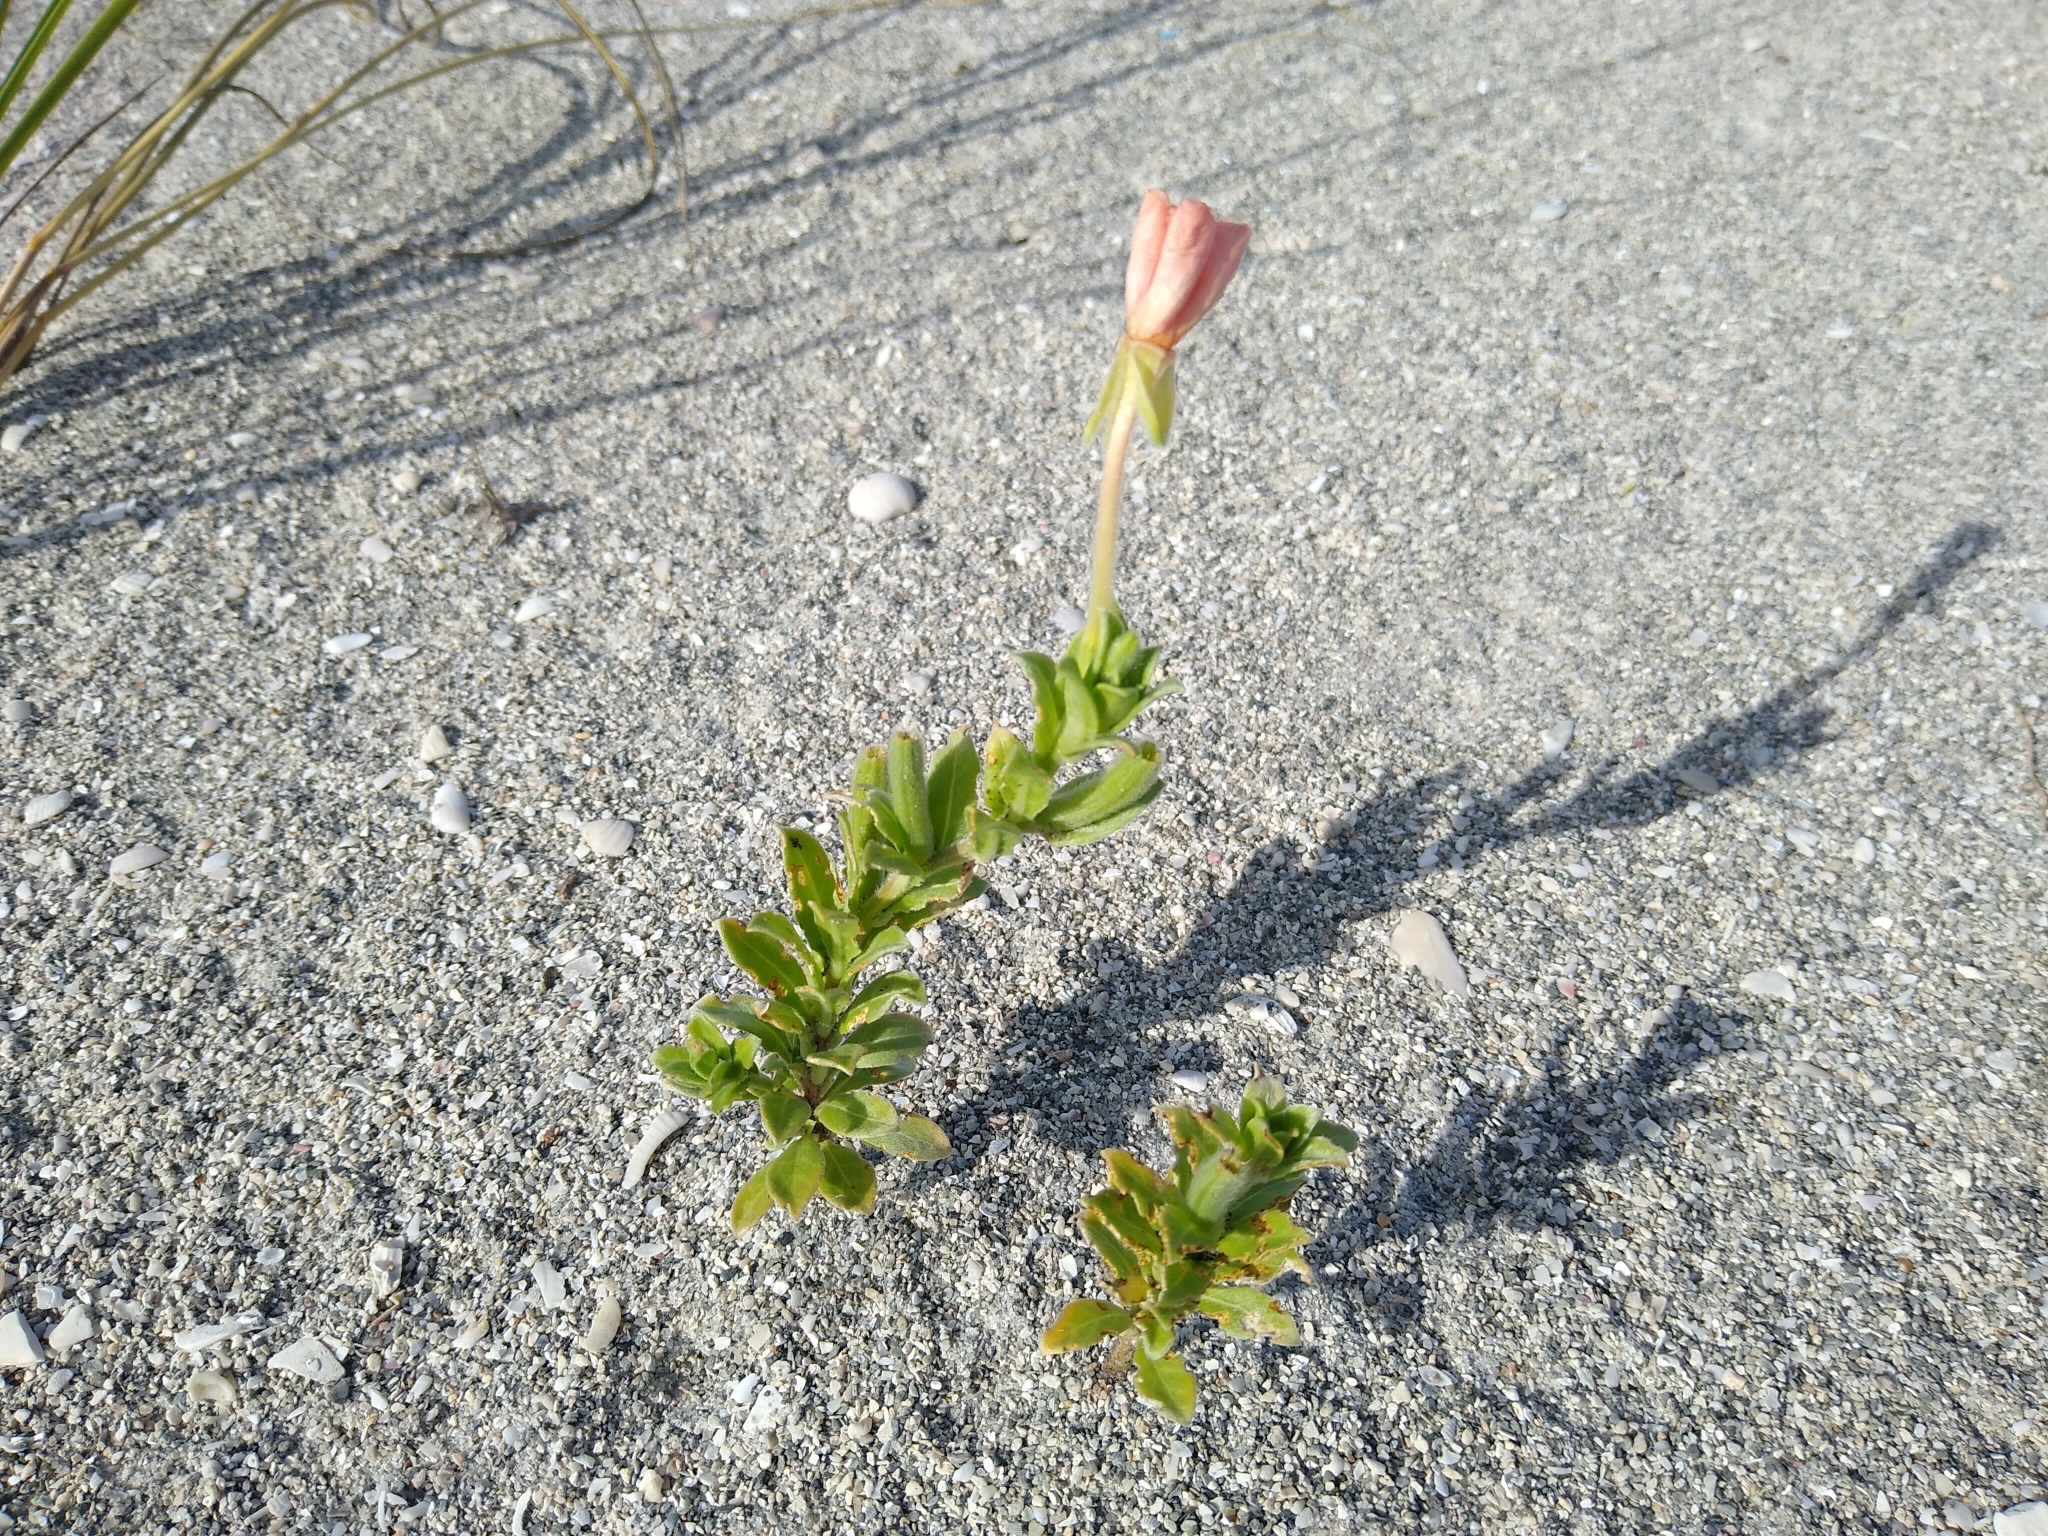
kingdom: Plantae
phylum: Tracheophyta
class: Magnoliopsida
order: Myrtales
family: Onagraceae
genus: Oenothera
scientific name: Oenothera humifusa
